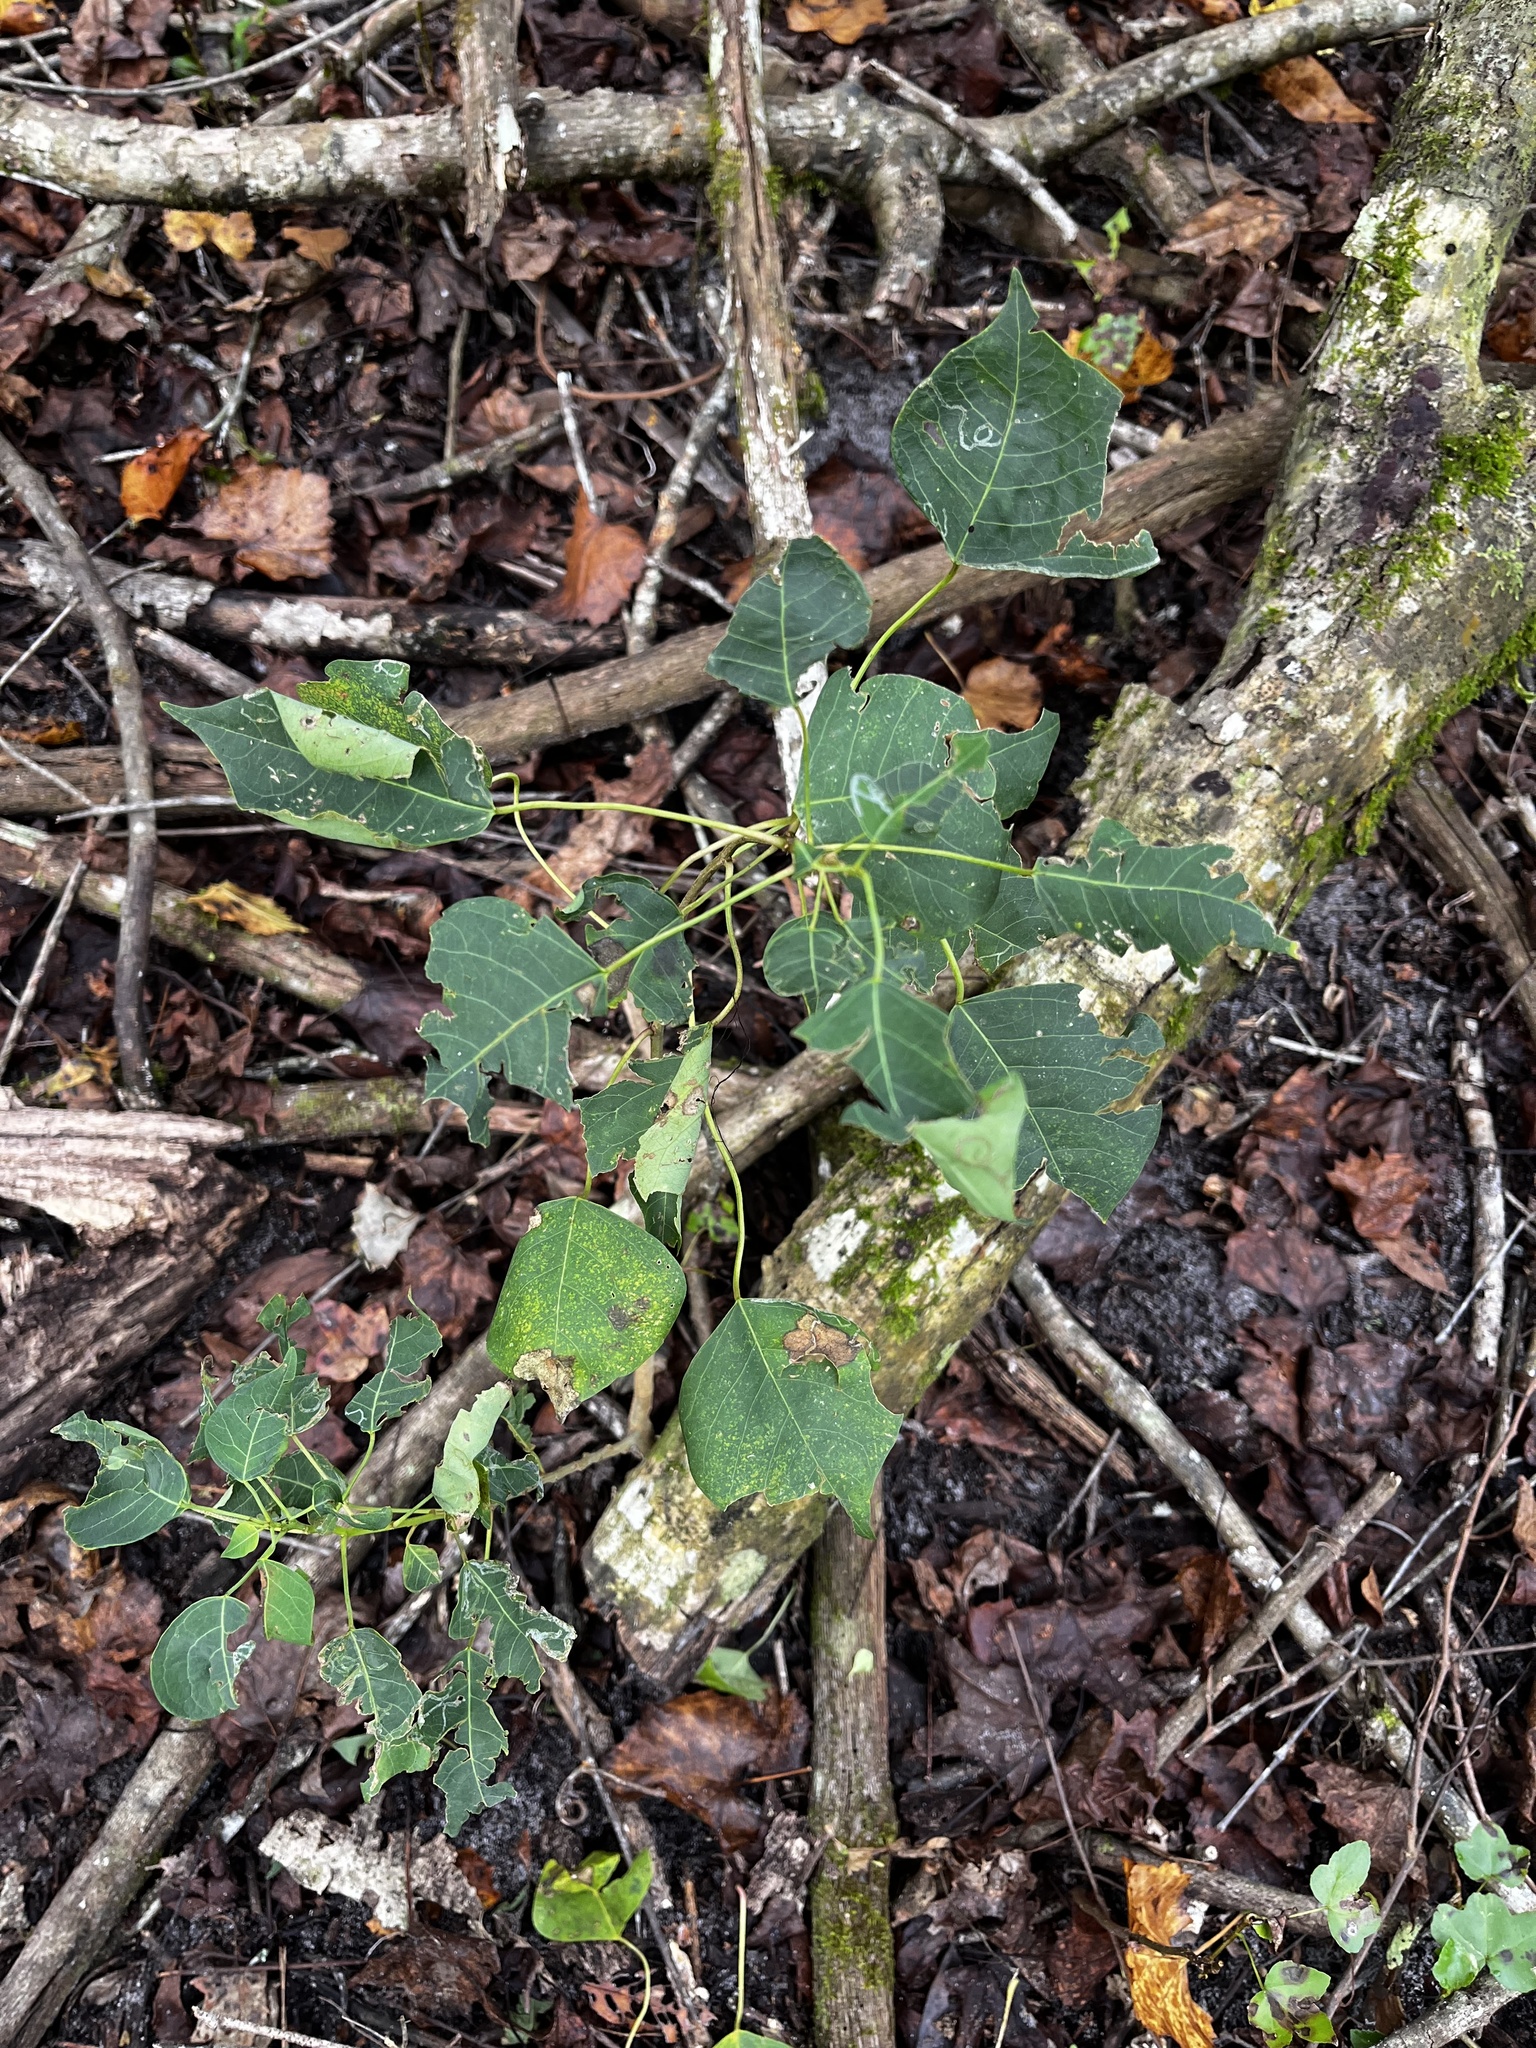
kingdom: Plantae
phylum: Tracheophyta
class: Magnoliopsida
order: Malpighiales
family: Euphorbiaceae
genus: Triadica
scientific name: Triadica sebifera
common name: Chinese tallow
